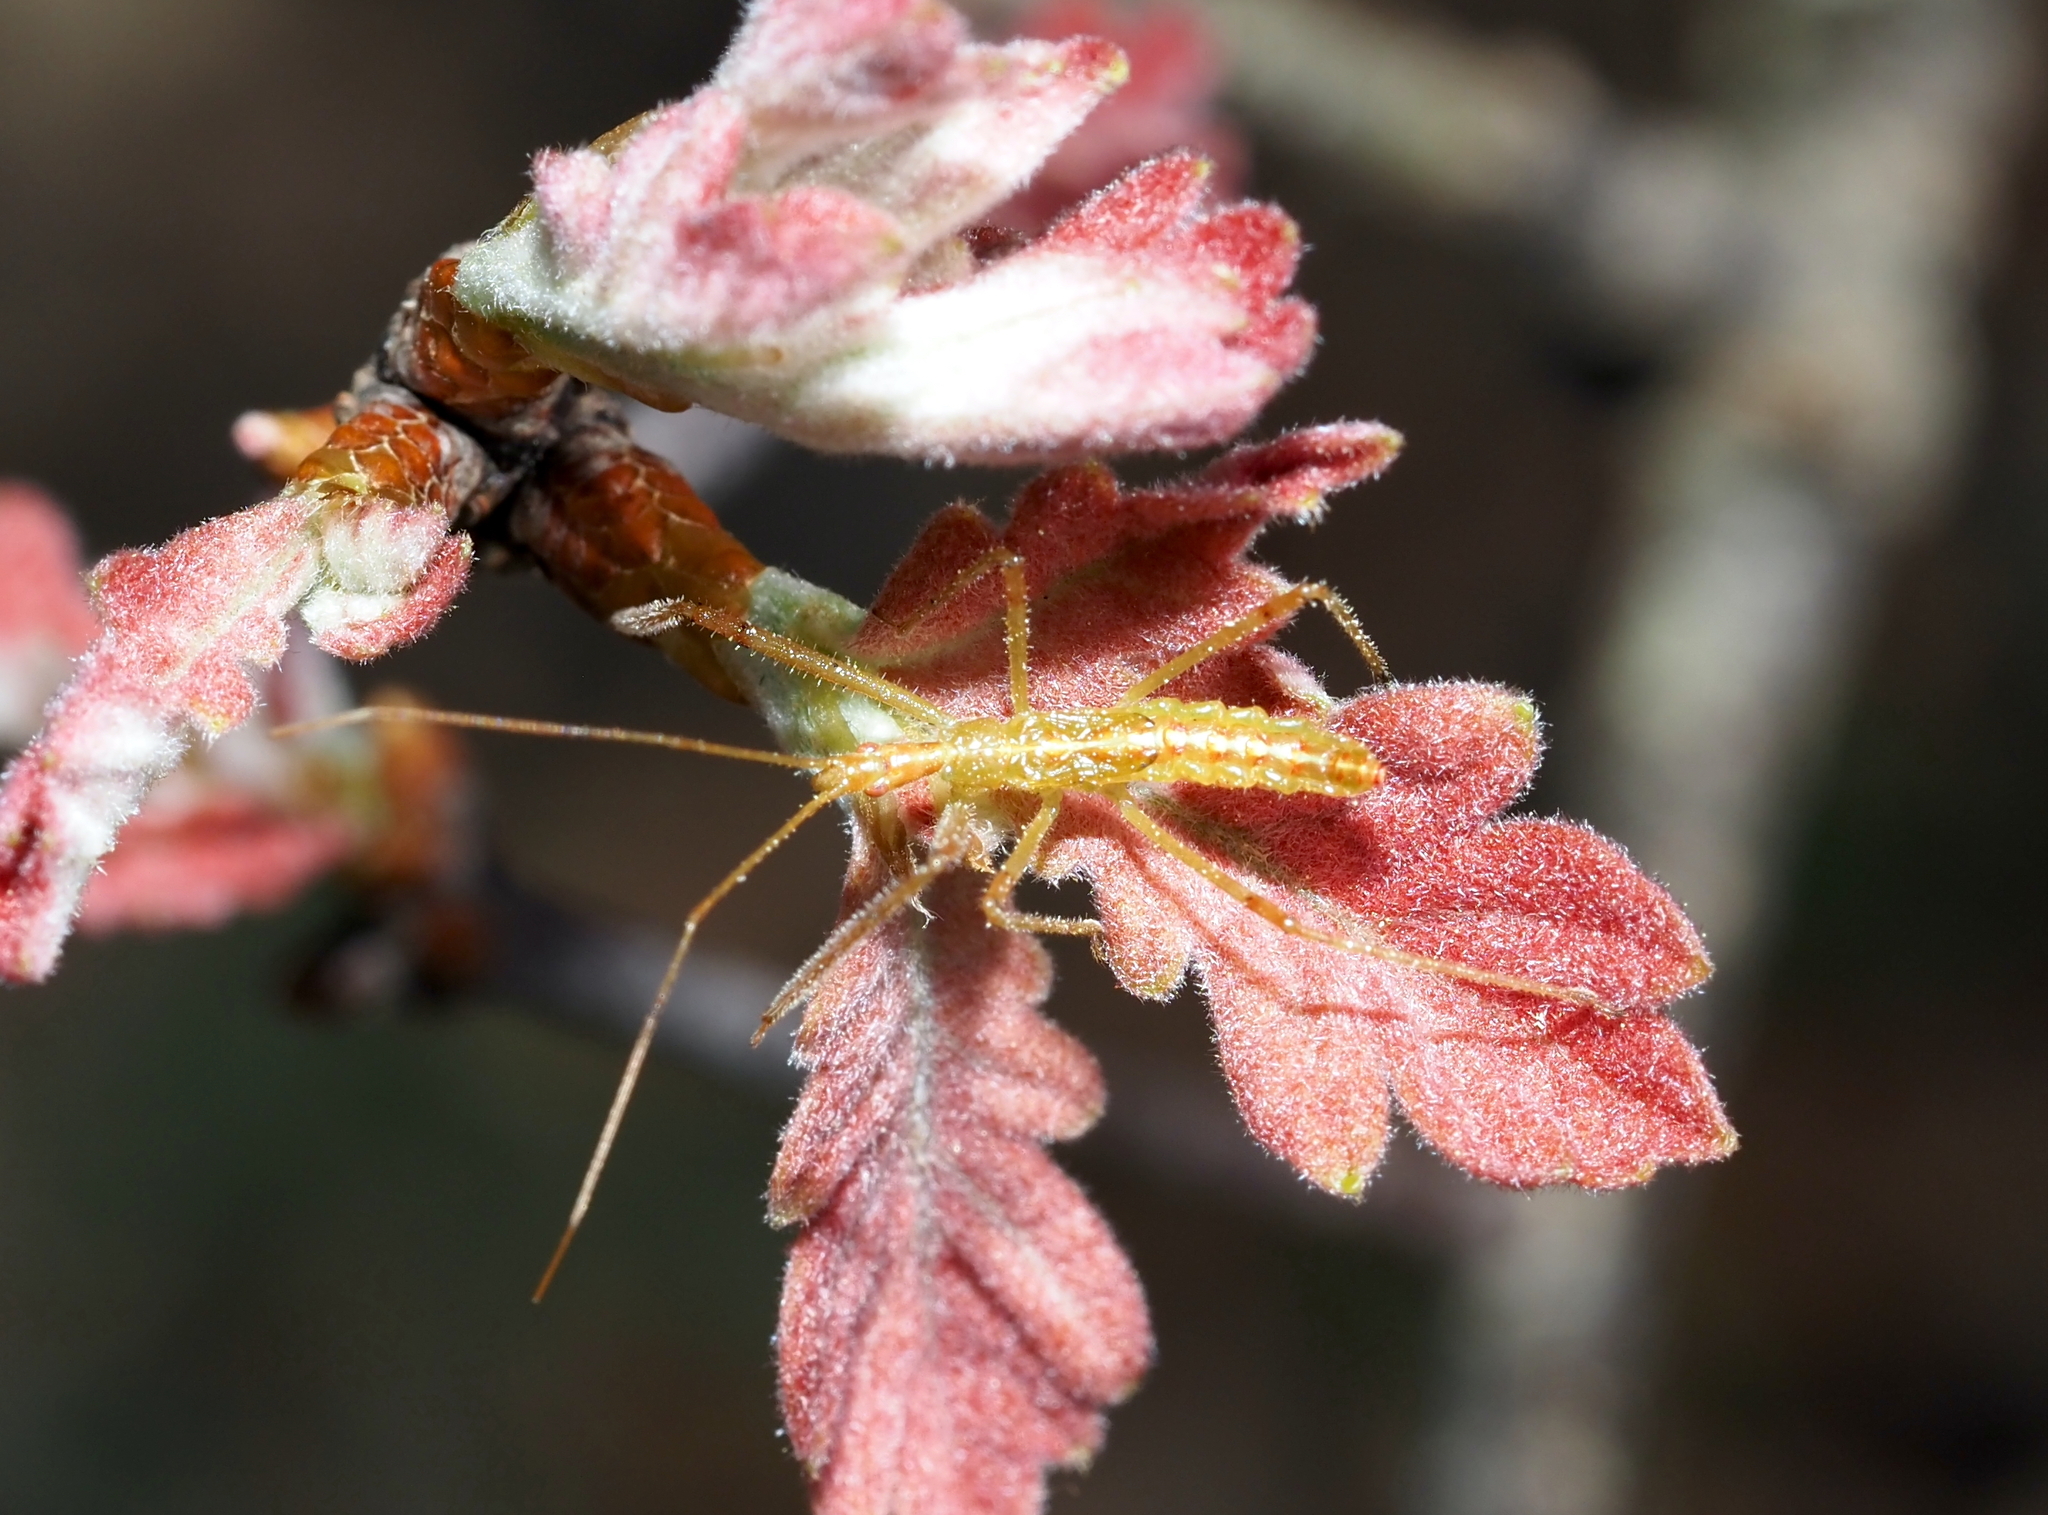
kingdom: Animalia
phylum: Arthropoda
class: Insecta
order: Hemiptera
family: Reduviidae
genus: Zelus
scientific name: Zelus luridus
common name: Pale green assassin bug
